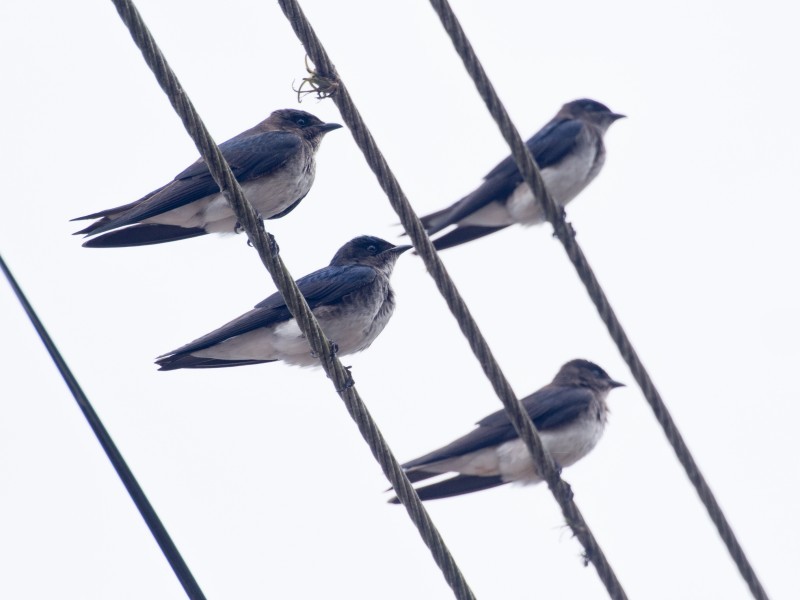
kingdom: Animalia
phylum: Chordata
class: Aves
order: Passeriformes
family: Hirundinidae
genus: Progne
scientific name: Progne chalybea
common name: Grey-breasted martin
